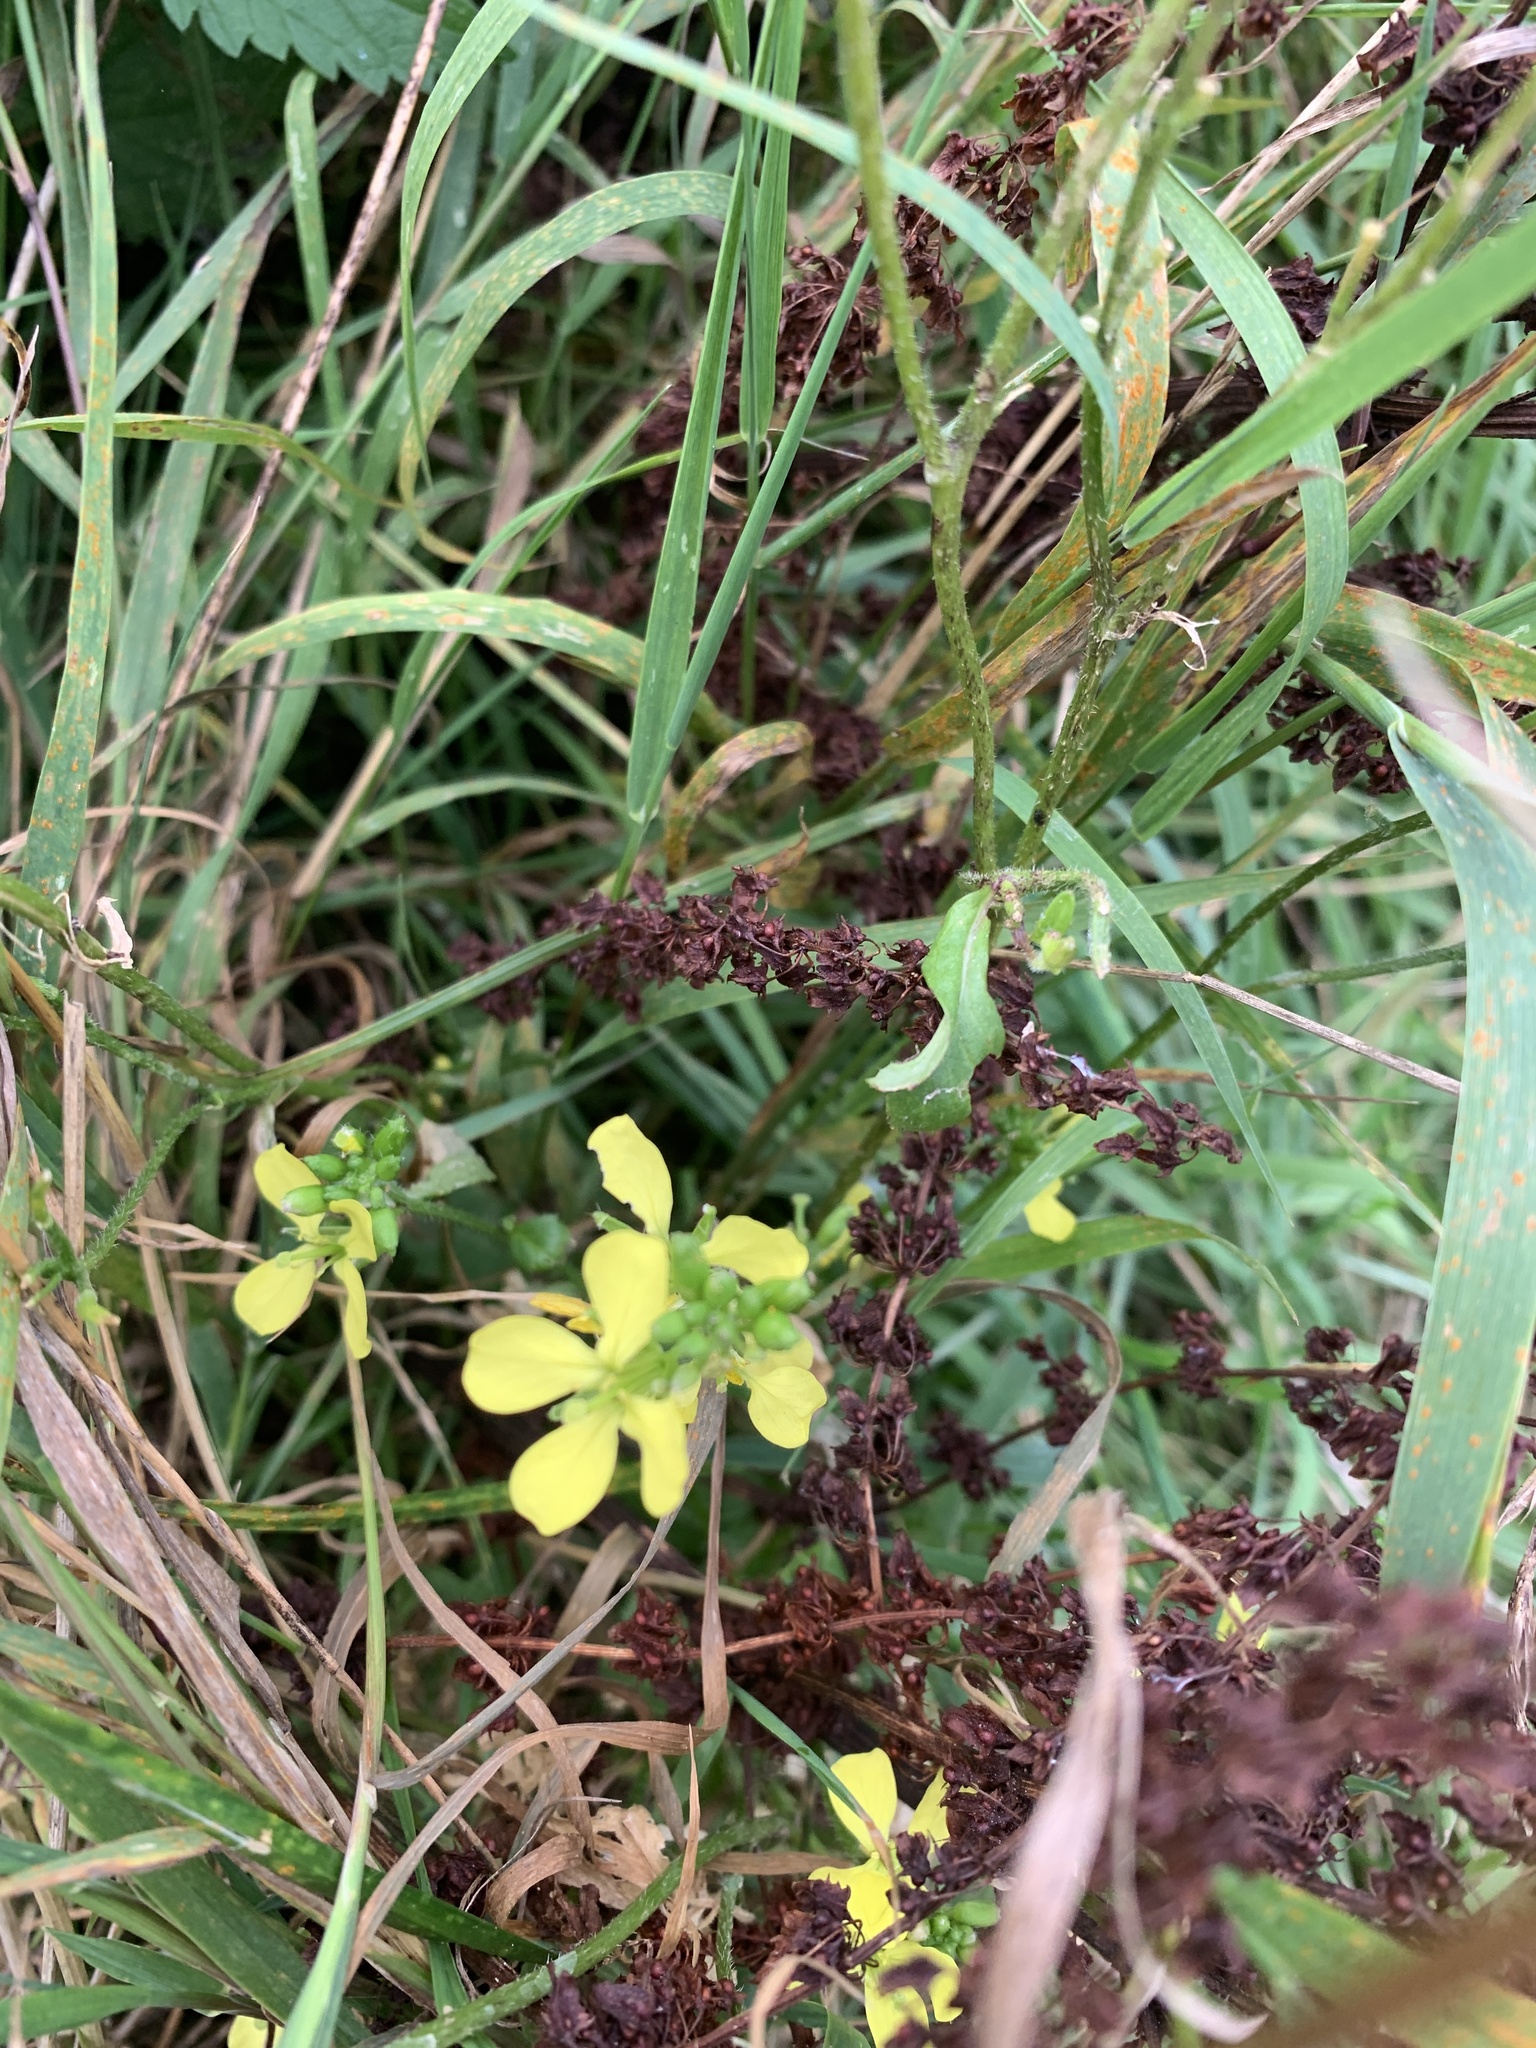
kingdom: Plantae
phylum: Tracheophyta
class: Magnoliopsida
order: Brassicales
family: Brassicaceae
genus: Sinapis
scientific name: Sinapis alba
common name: White mustard
